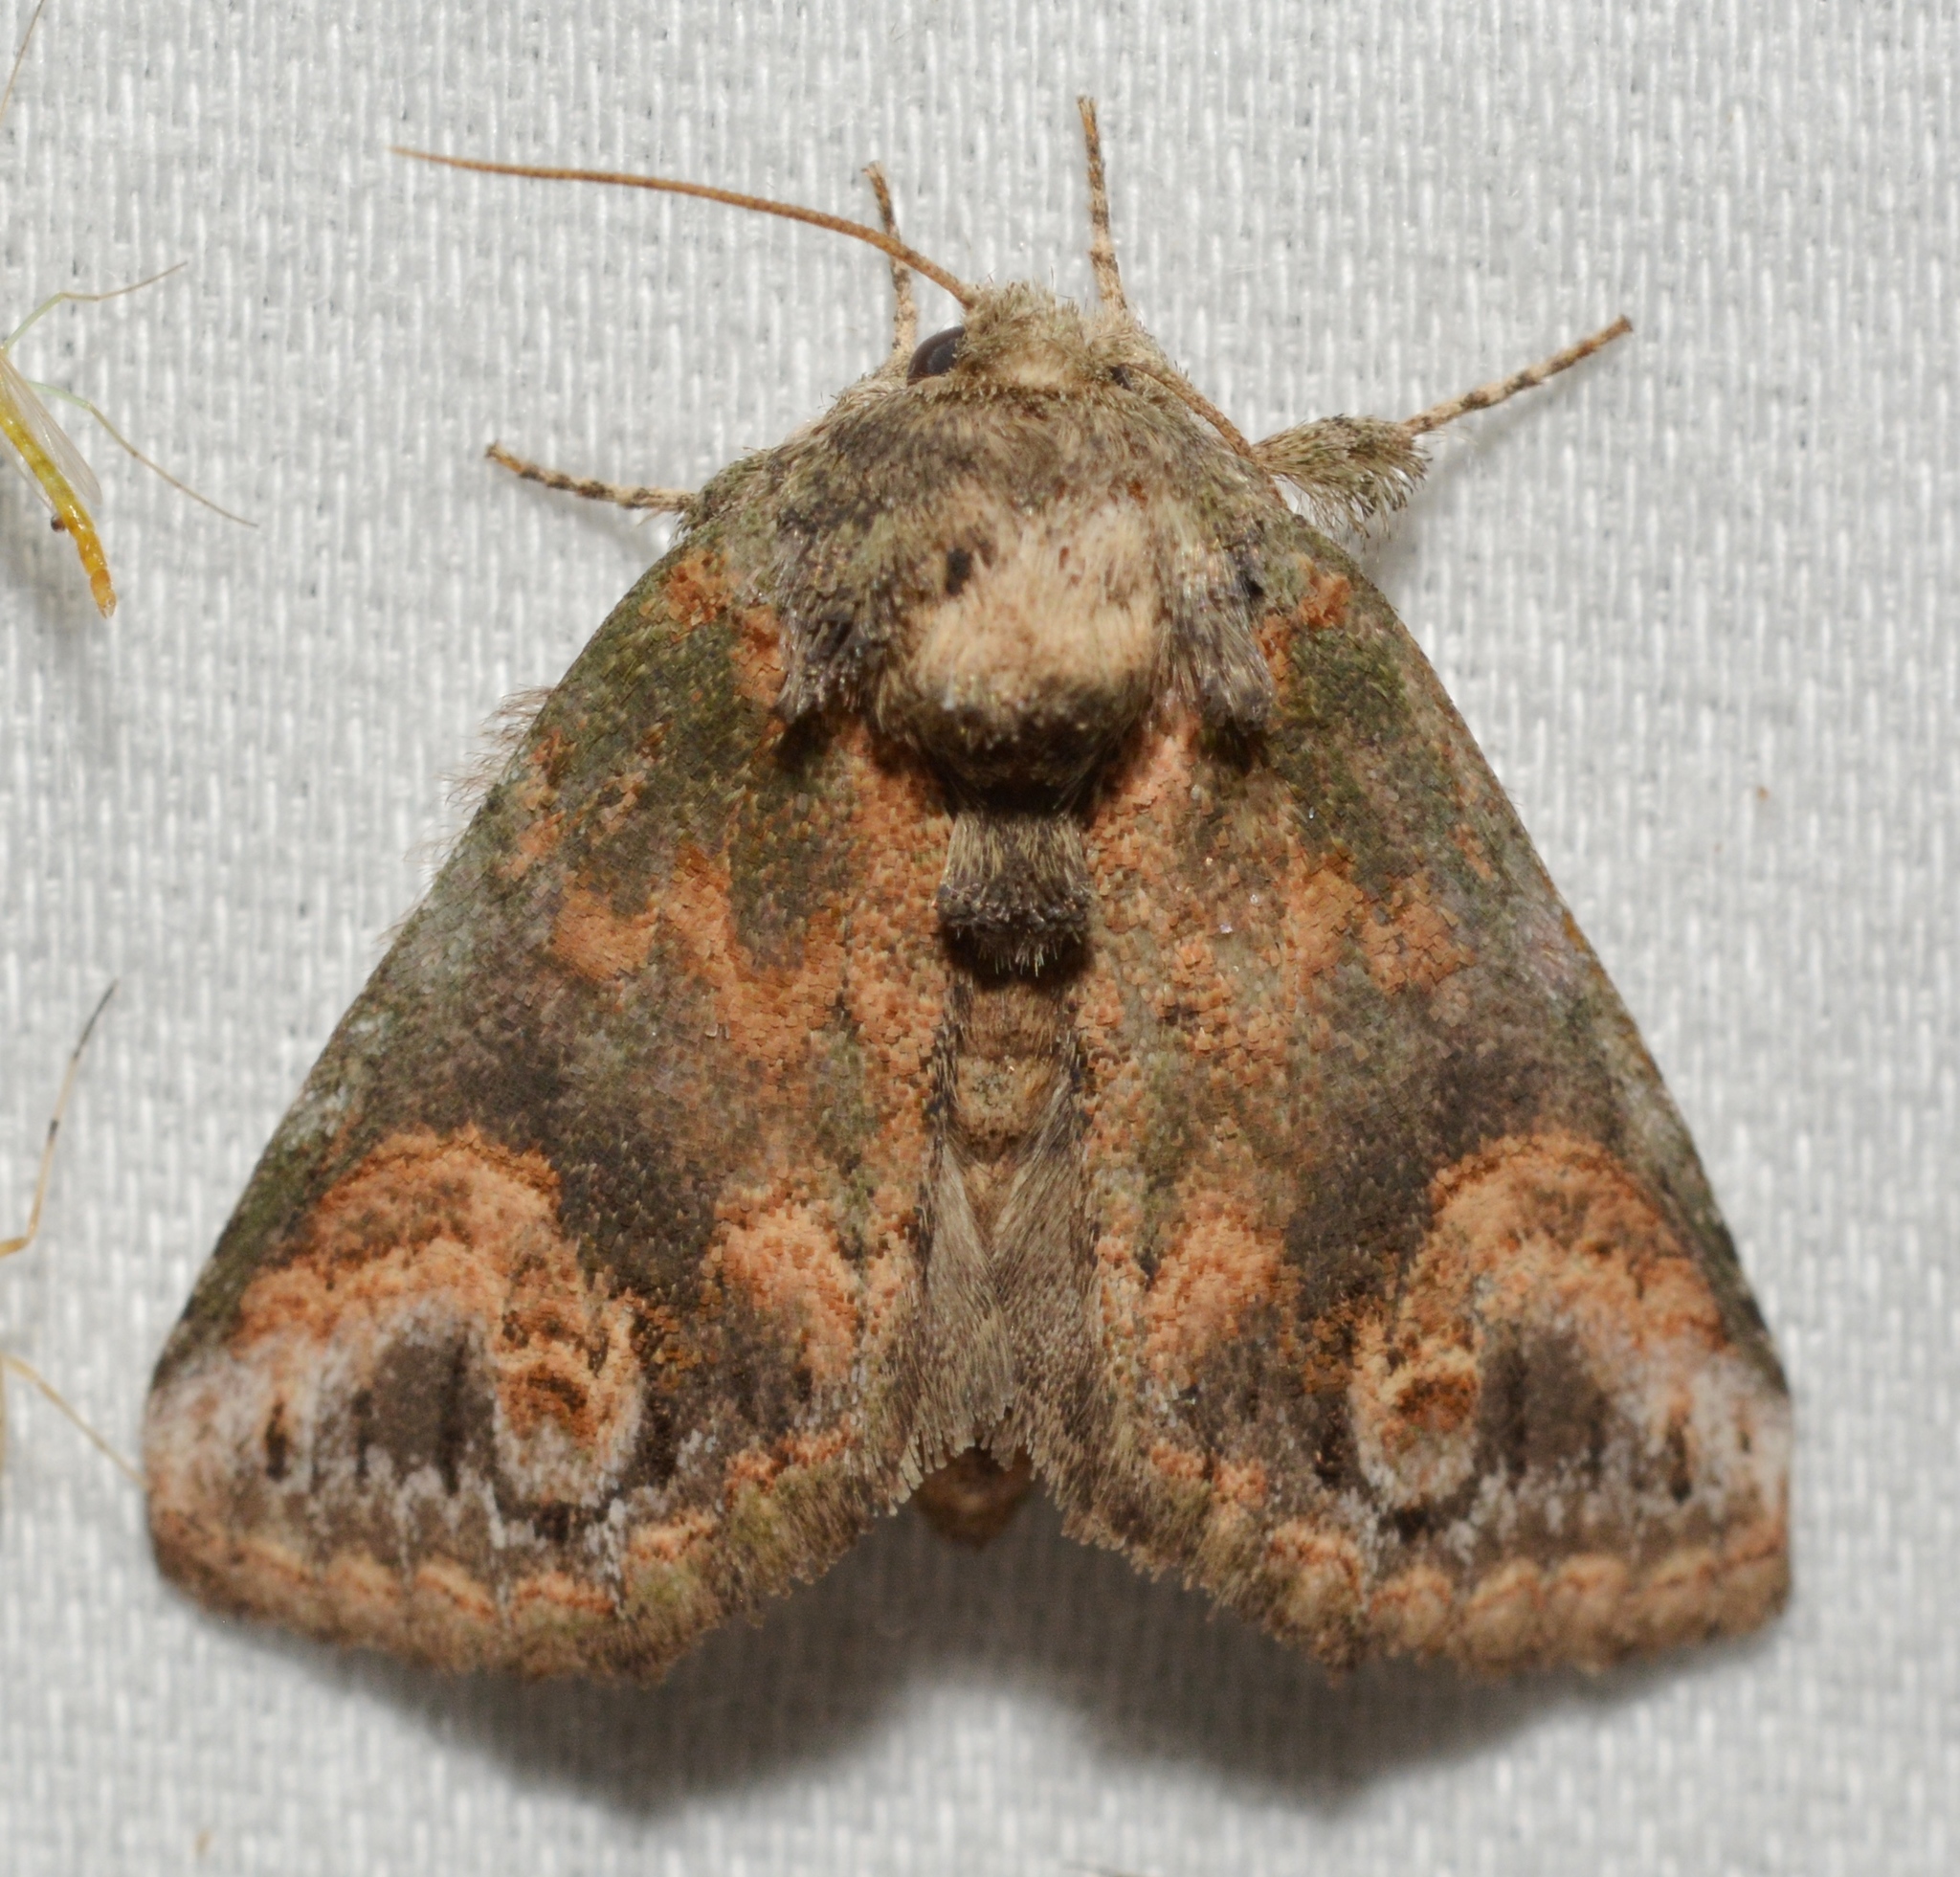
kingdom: Animalia
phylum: Arthropoda
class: Insecta
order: Lepidoptera
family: Notodontidae
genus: Rifargia
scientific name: Rifargia
